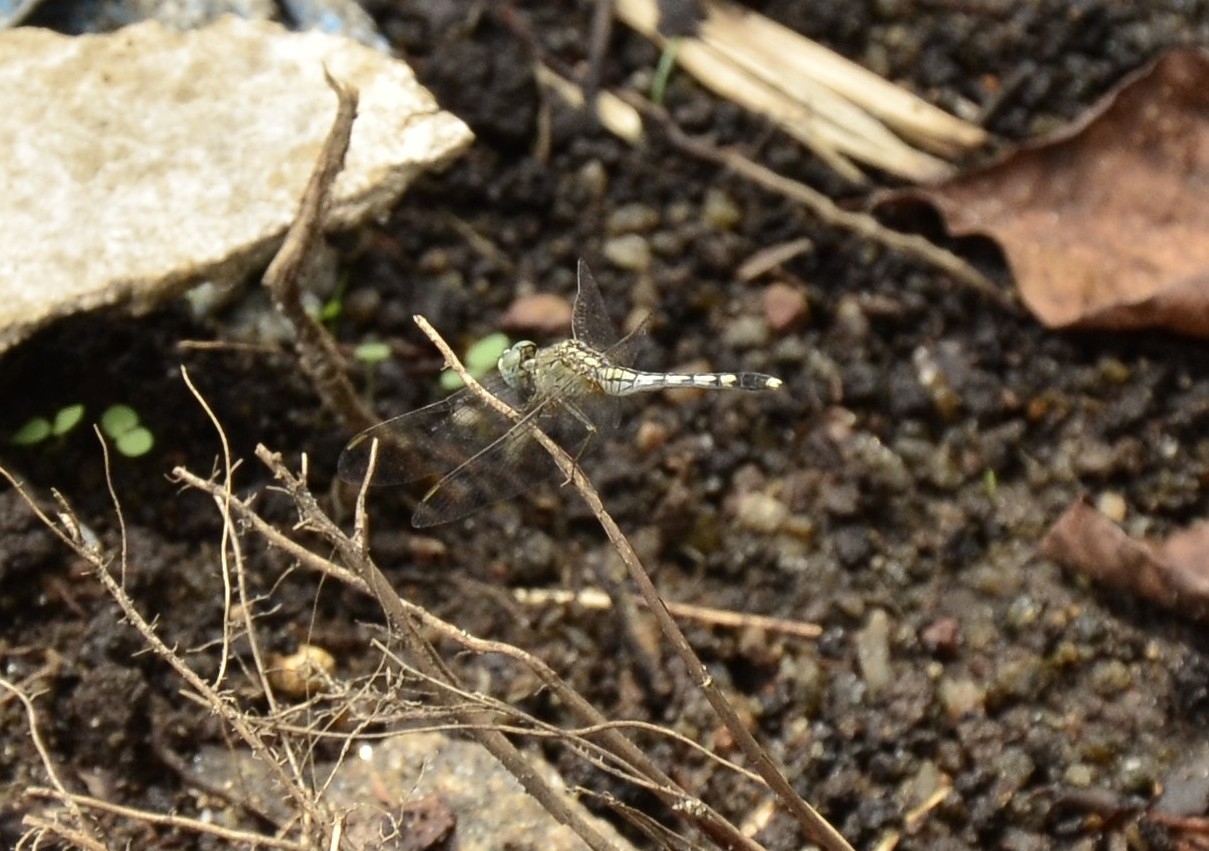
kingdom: Animalia
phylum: Arthropoda
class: Insecta
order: Odonata
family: Libellulidae
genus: Diplacodes
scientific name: Diplacodes trivialis
